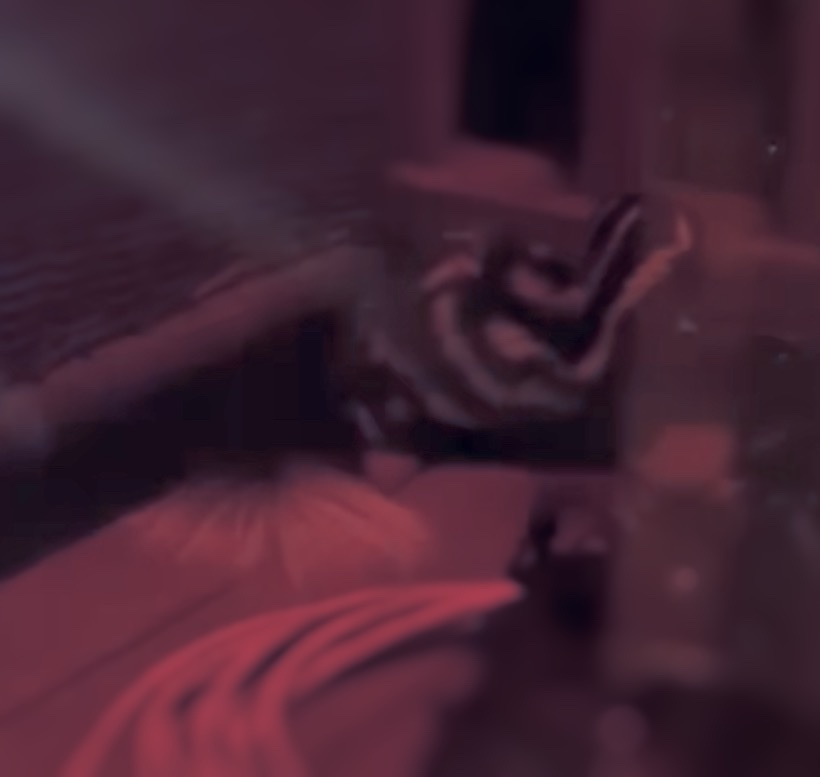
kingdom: Animalia
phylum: Chordata
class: Mammalia
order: Carnivora
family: Mephitidae
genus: Spilogale
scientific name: Spilogale putorius
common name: Eastern spotted skunk
